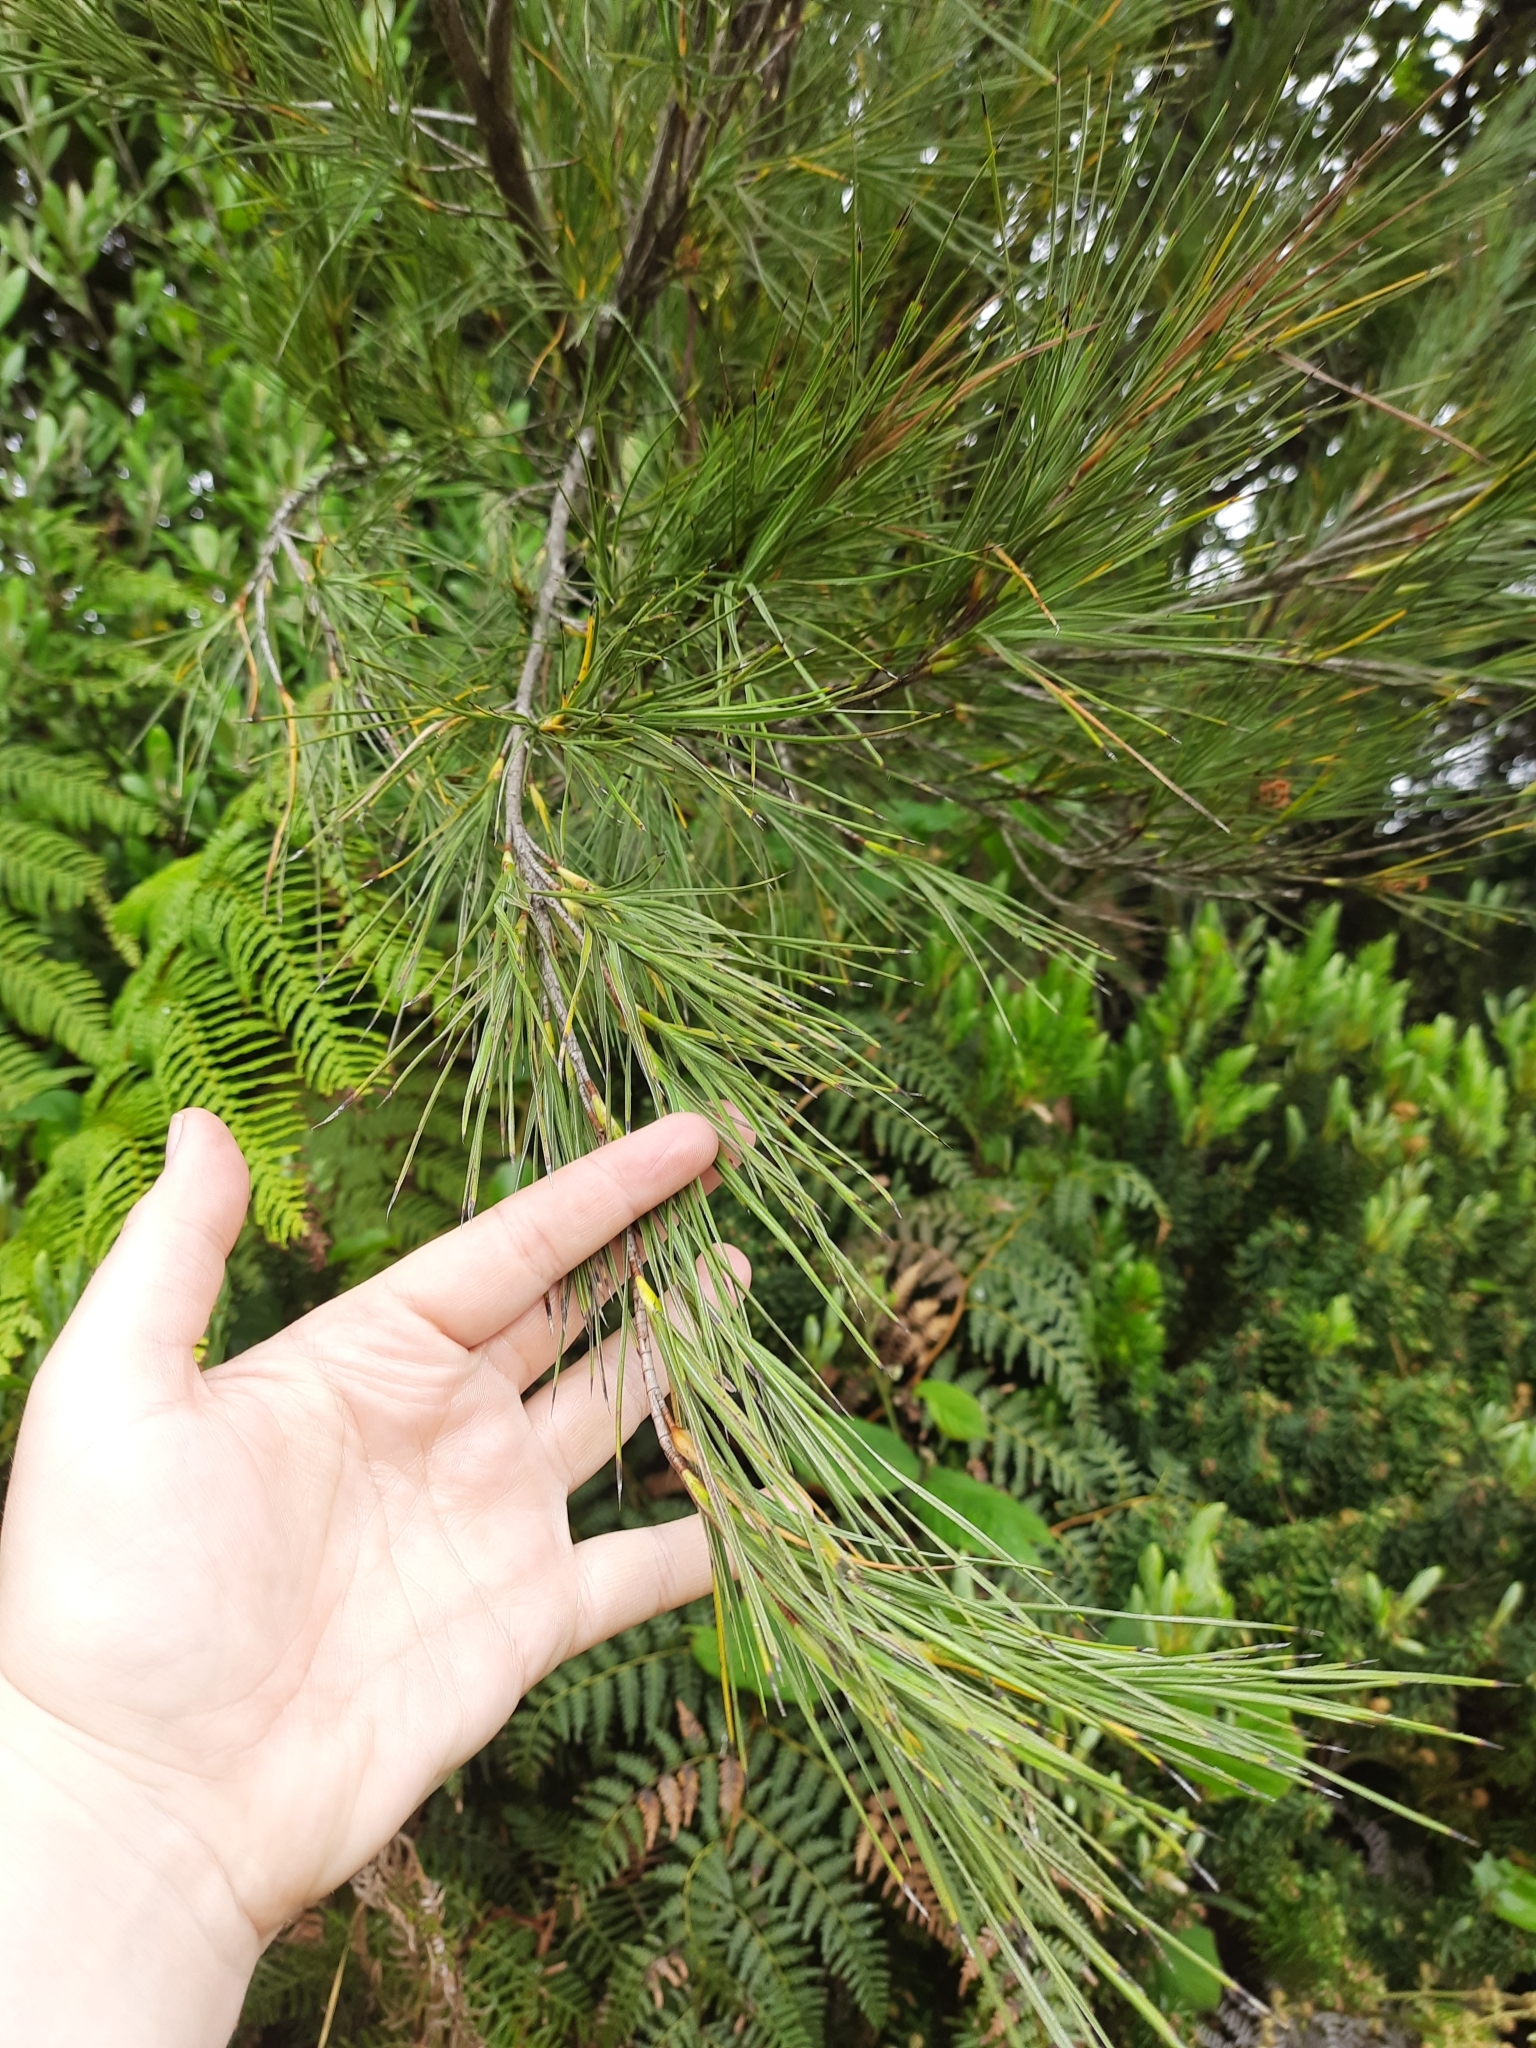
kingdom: Plantae
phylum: Tracheophyta
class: Magnoliopsida
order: Ericales
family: Ericaceae
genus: Dracophyllum
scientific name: Dracophyllum arboreum
